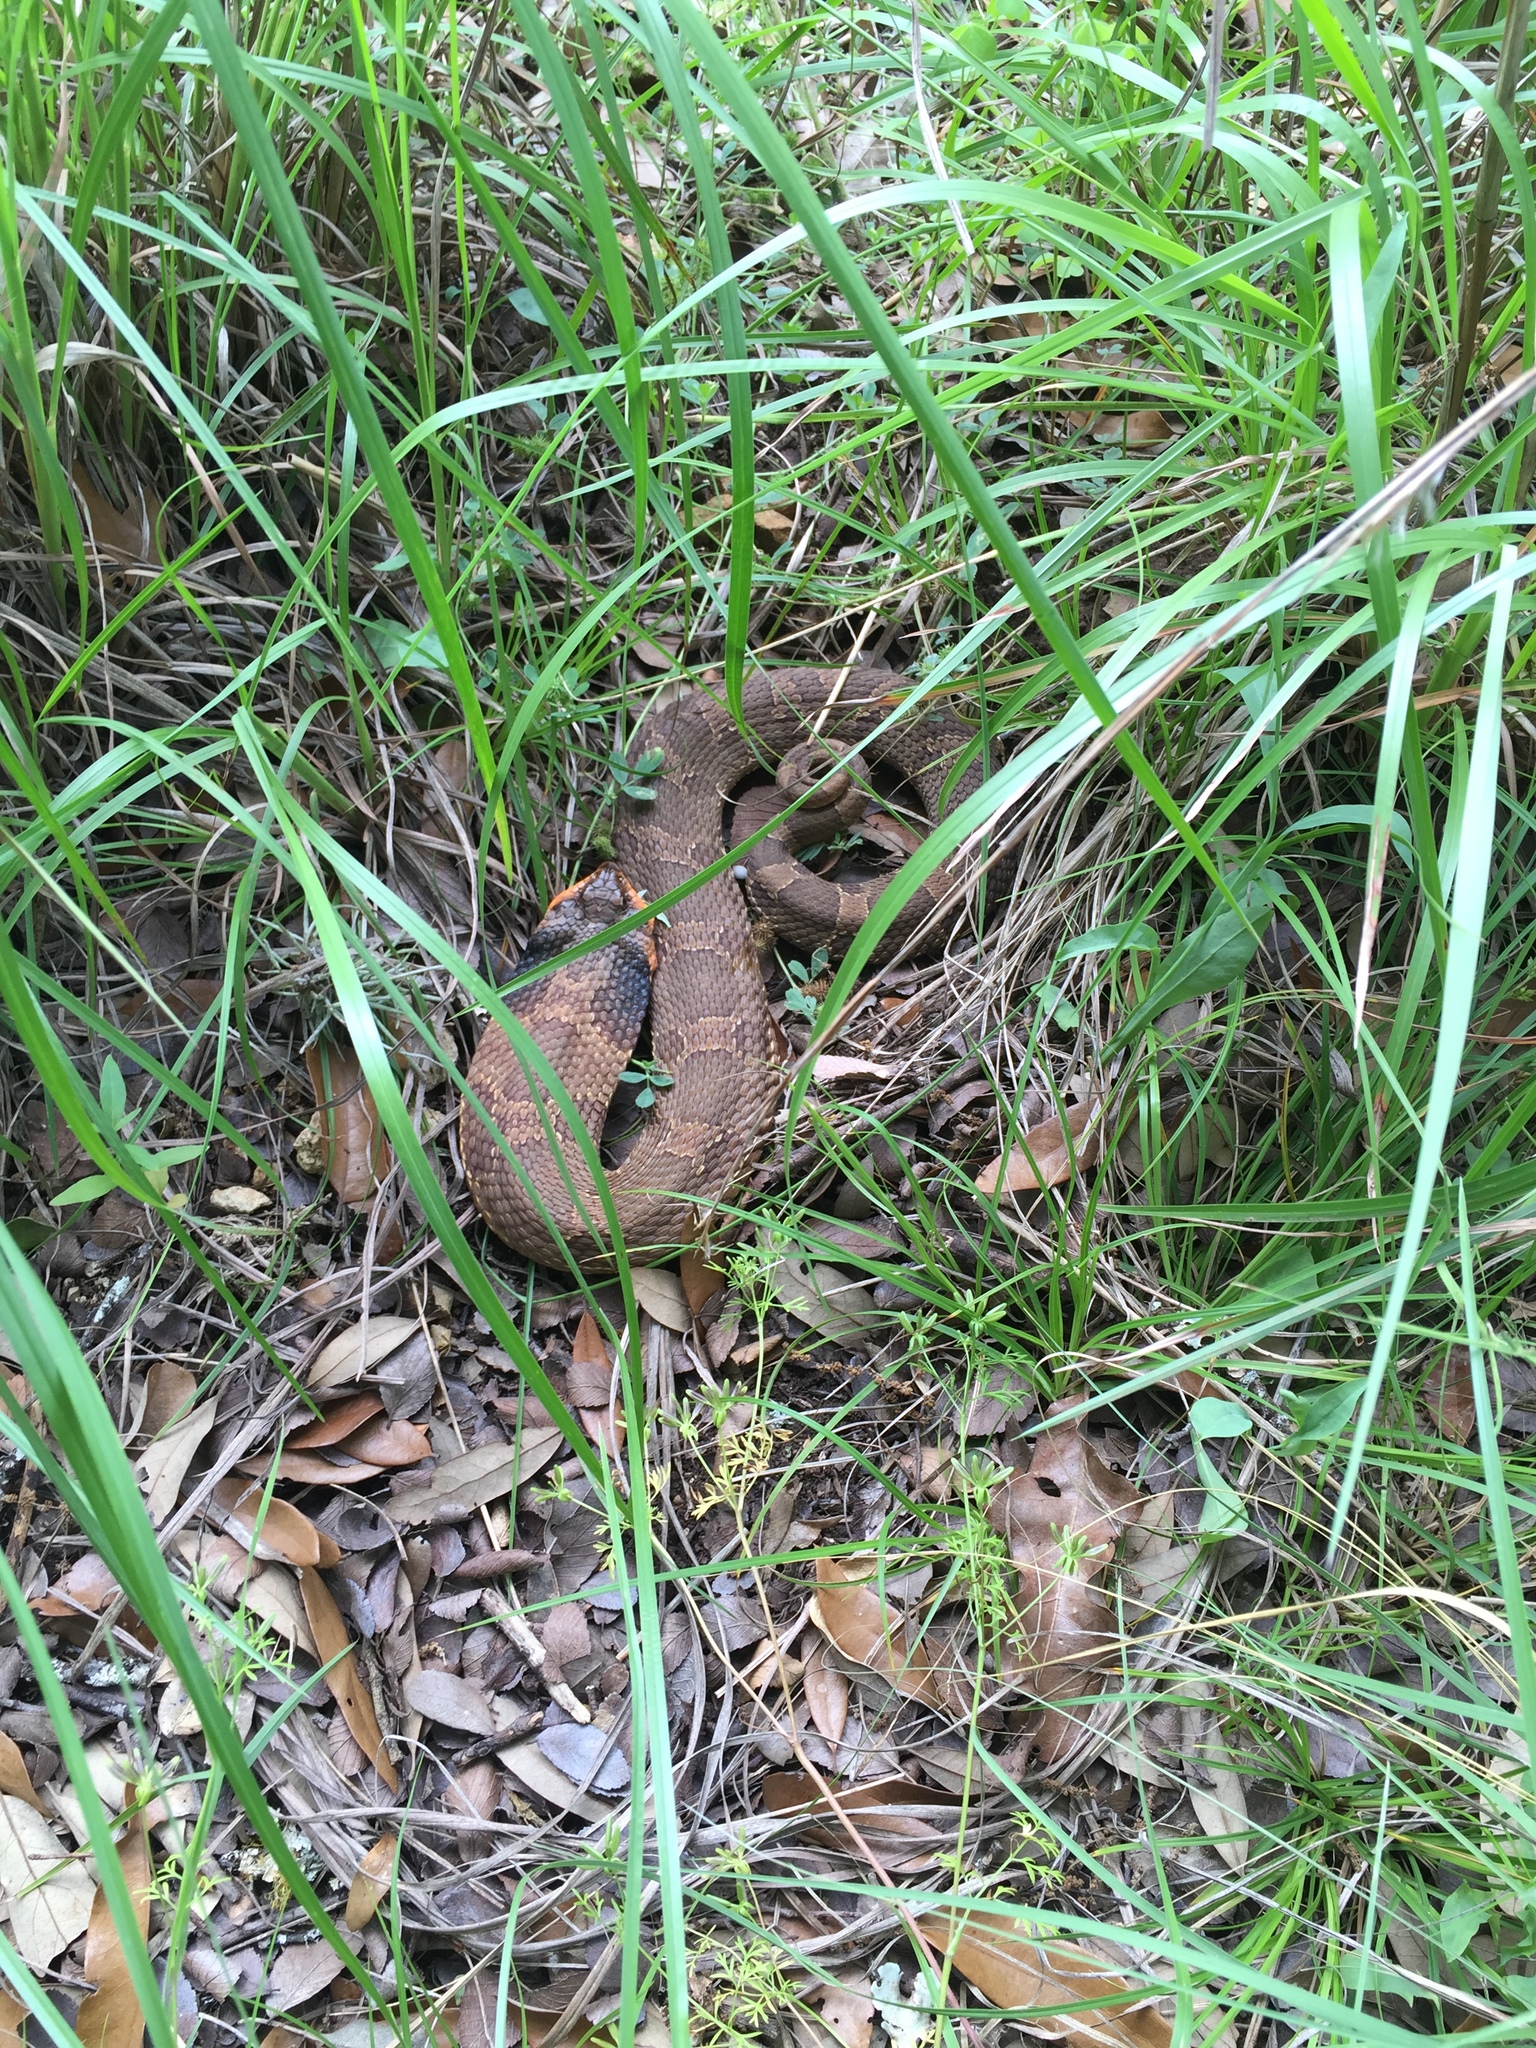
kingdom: Animalia
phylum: Chordata
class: Squamata
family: Colubridae
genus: Heterodon
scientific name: Heterodon platirhinos
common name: Eastern hognose snake
